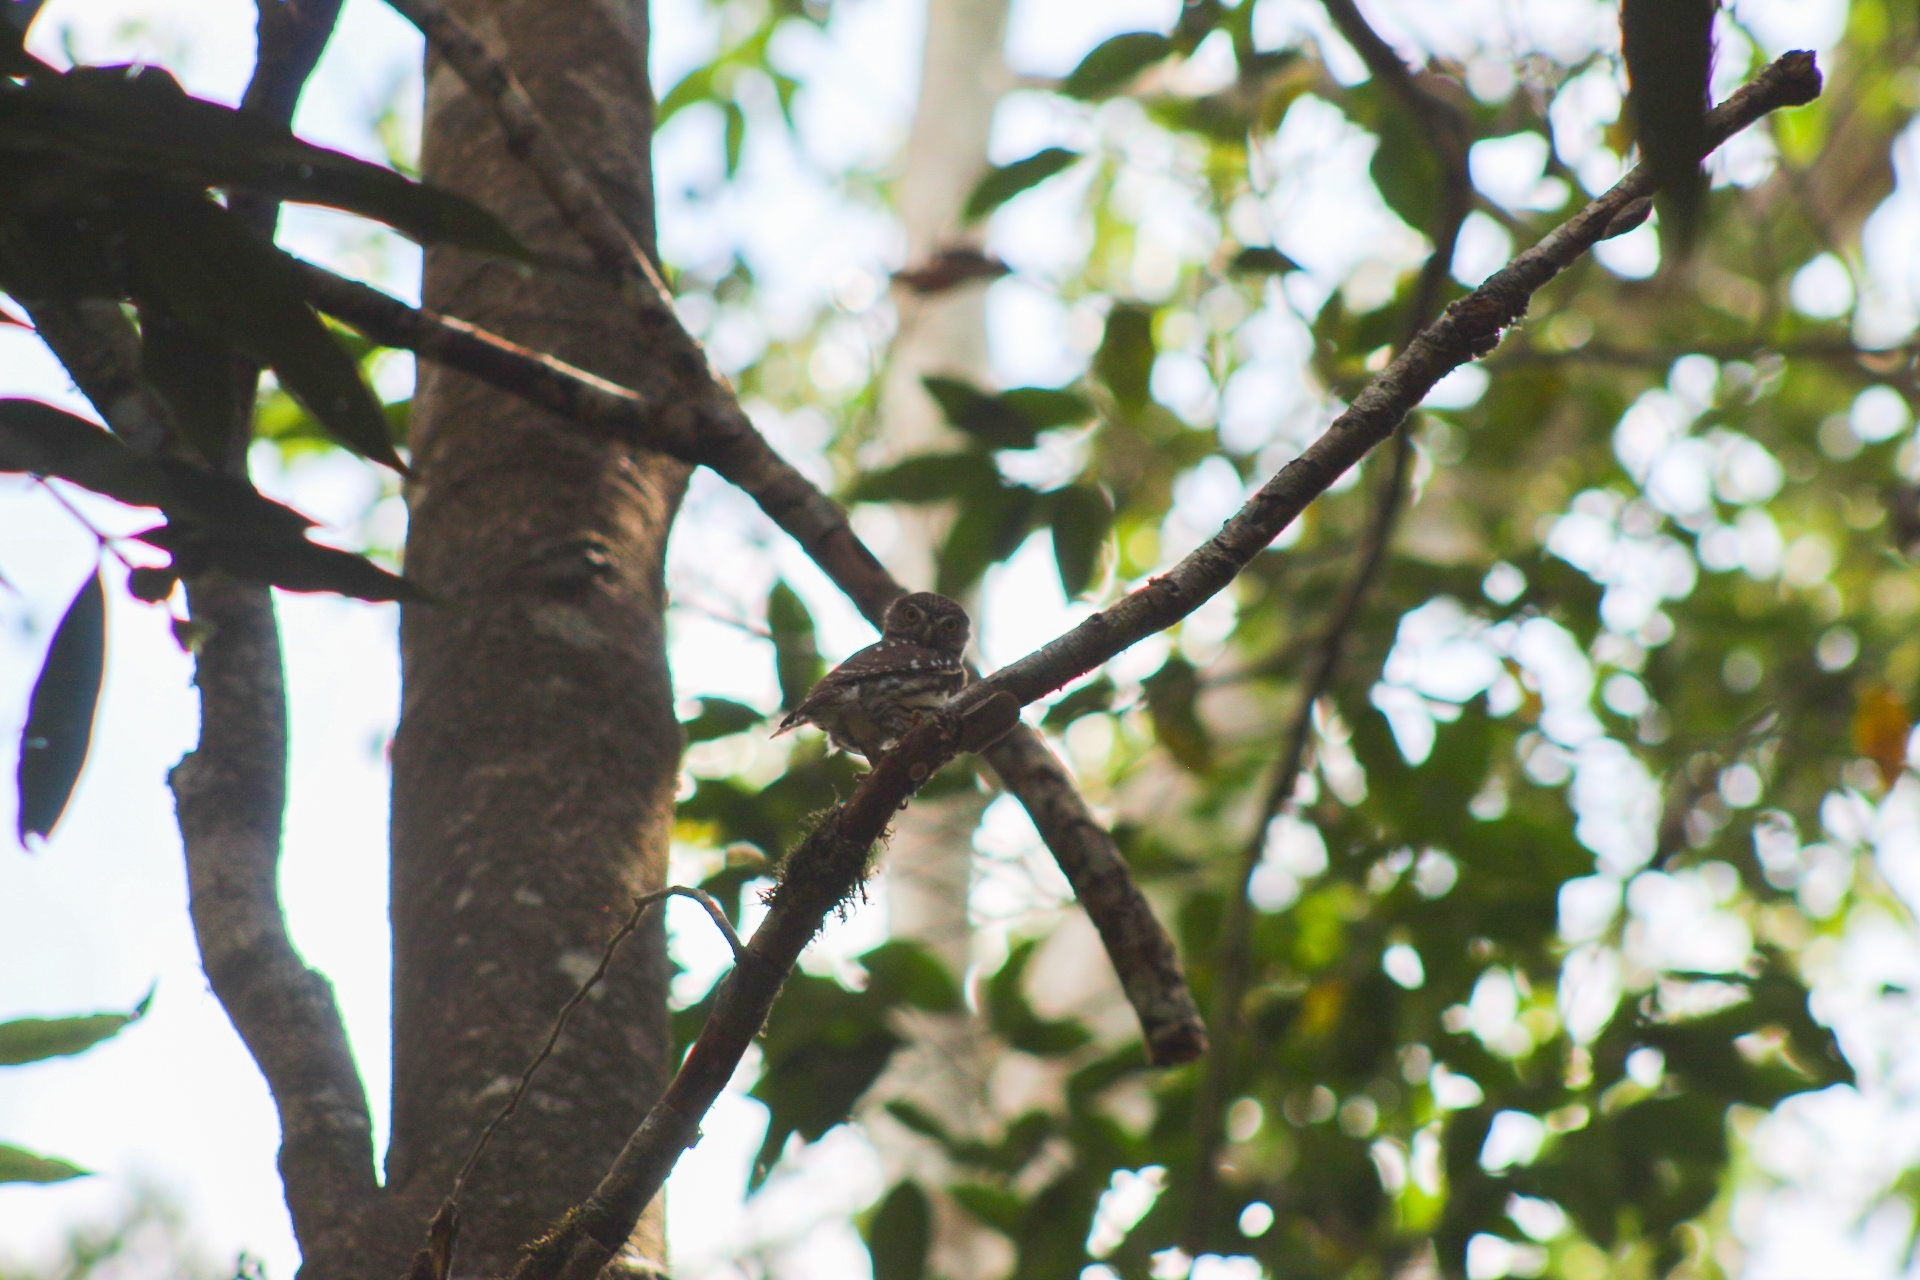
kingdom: Animalia
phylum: Chordata
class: Aves
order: Strigiformes
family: Strigidae
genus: Glaucidium
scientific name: Glaucidium brasilianum
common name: Ferruginous pygmy-owl
